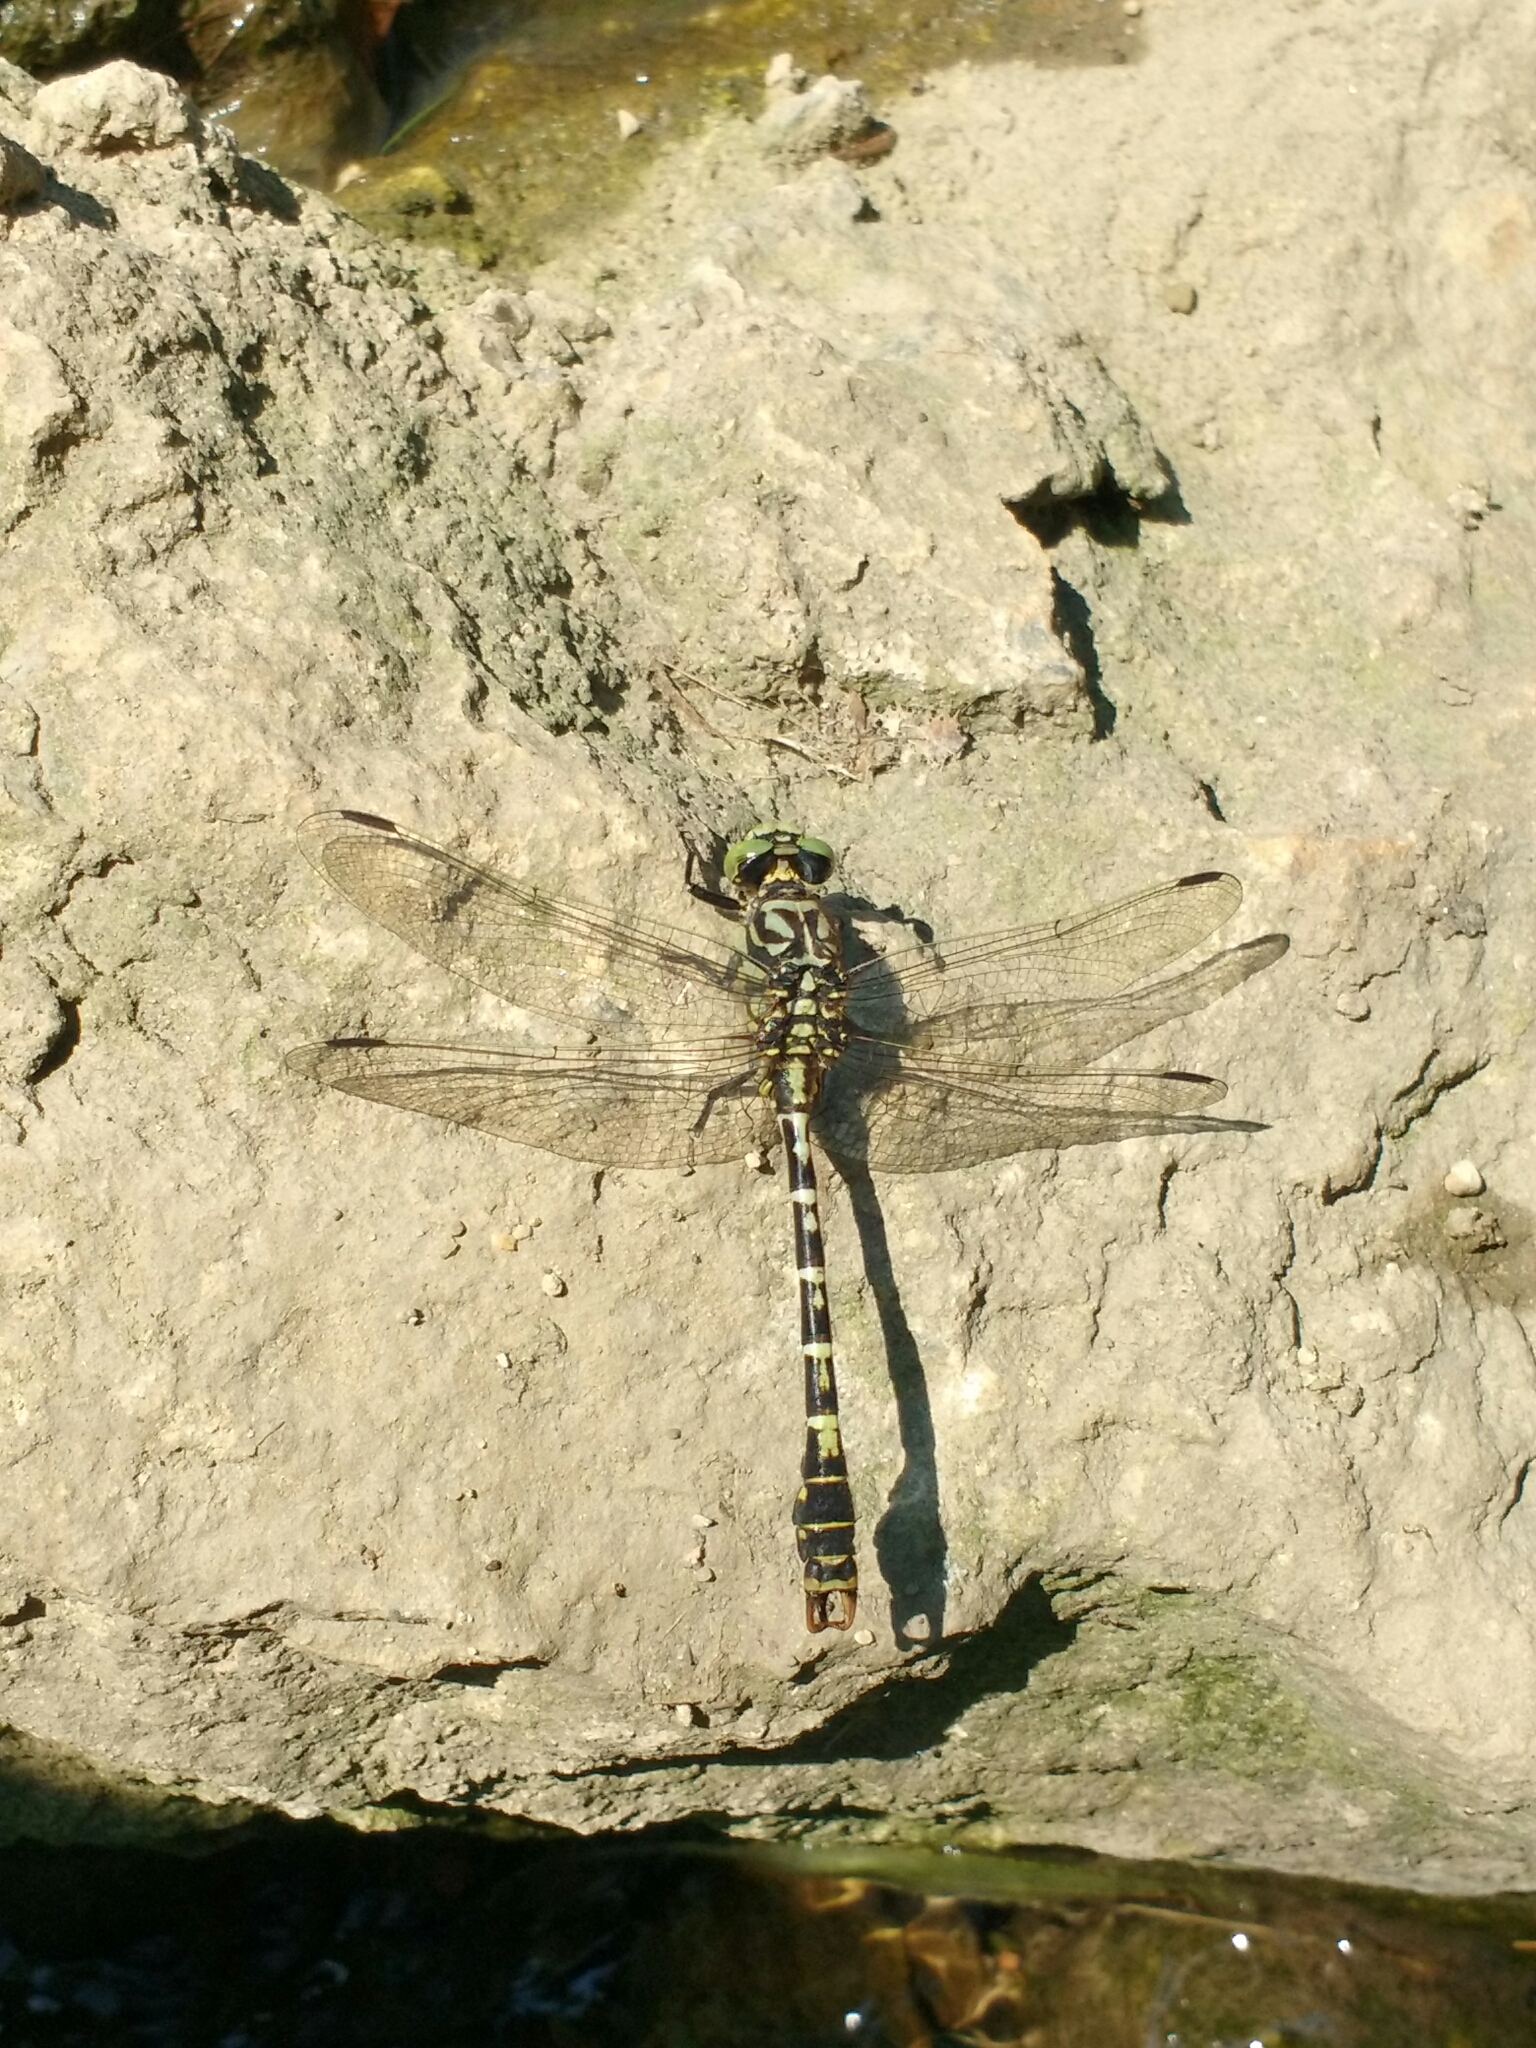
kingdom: Animalia
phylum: Arthropoda
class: Insecta
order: Odonata
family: Gomphidae
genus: Onychogomphus
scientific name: Onychogomphus forcipatus
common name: Small pincertail
